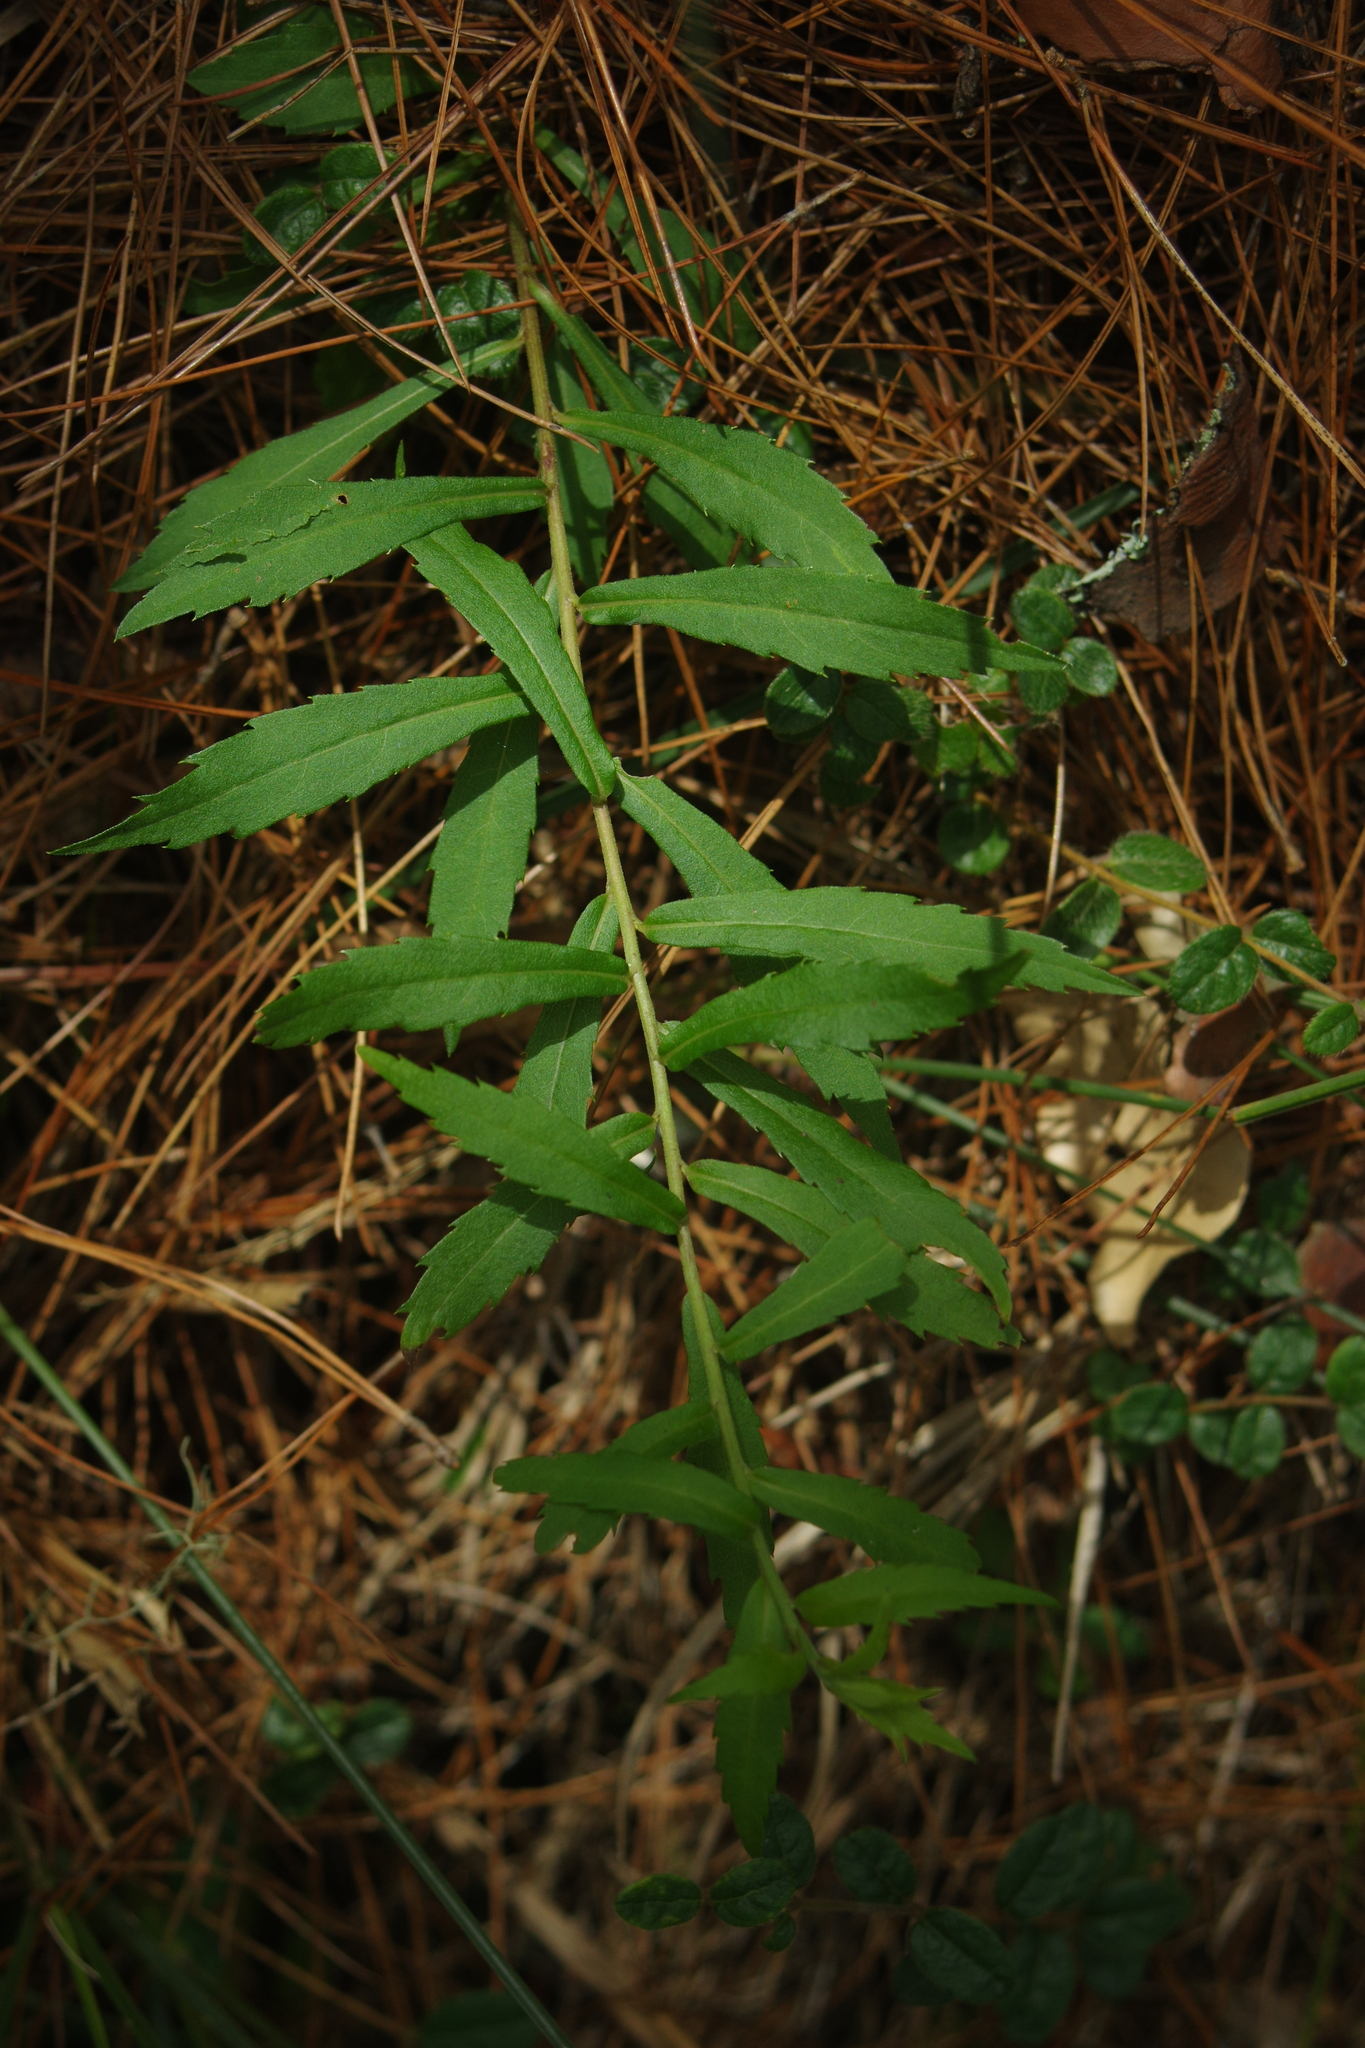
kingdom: Plantae
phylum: Tracheophyta
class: Magnoliopsida
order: Asterales
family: Asteraceae
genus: Aster
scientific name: Aster taiwanensis
